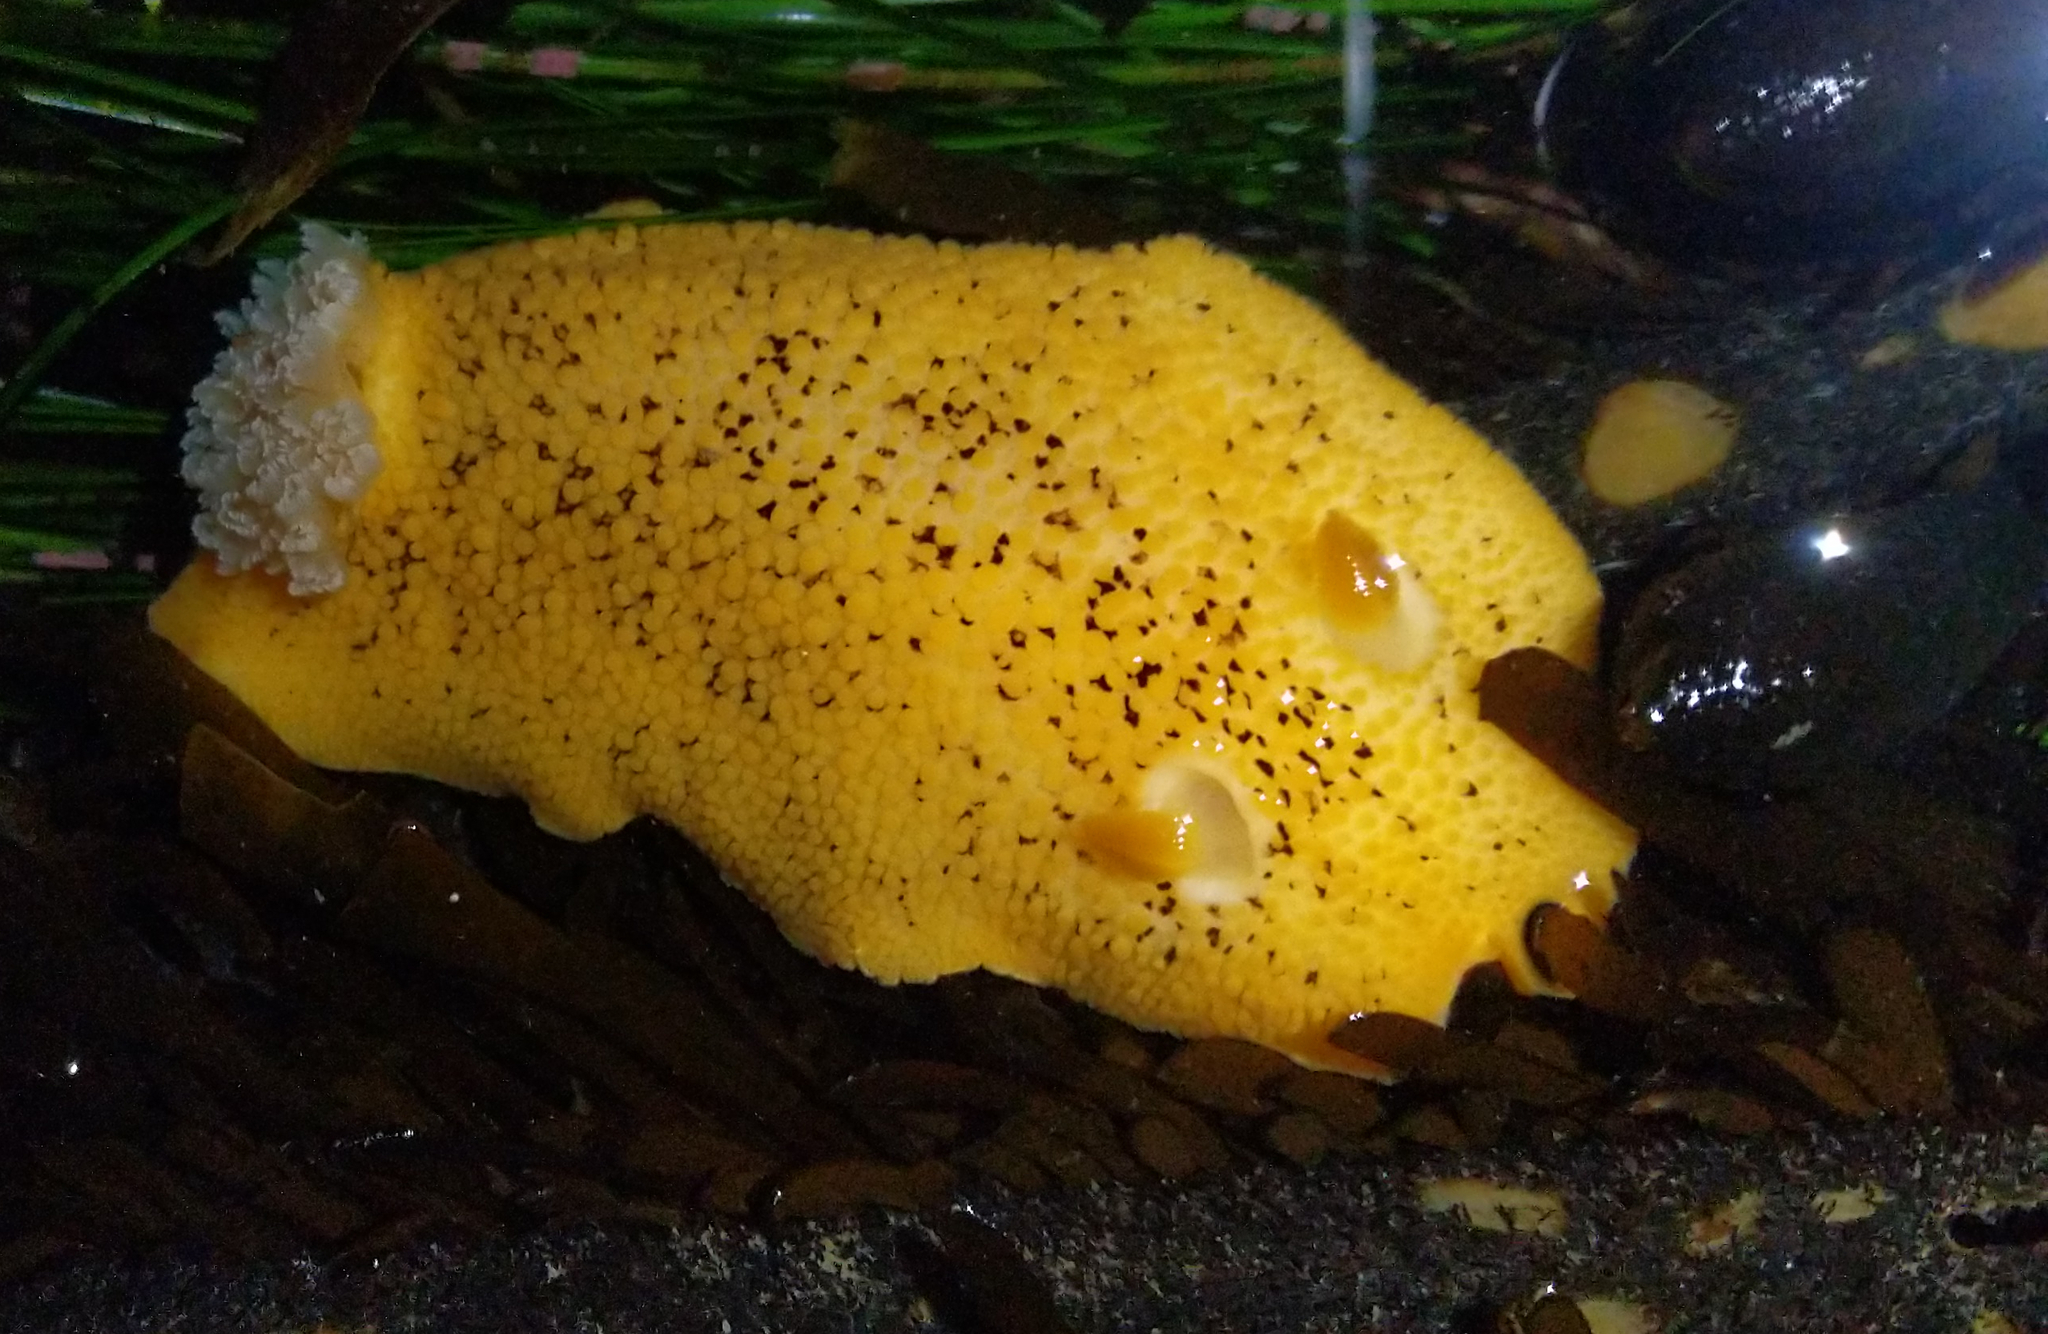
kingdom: Animalia
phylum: Mollusca
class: Gastropoda
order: Nudibranchia
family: Discodorididae
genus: Peltodoris
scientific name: Peltodoris nobilis
